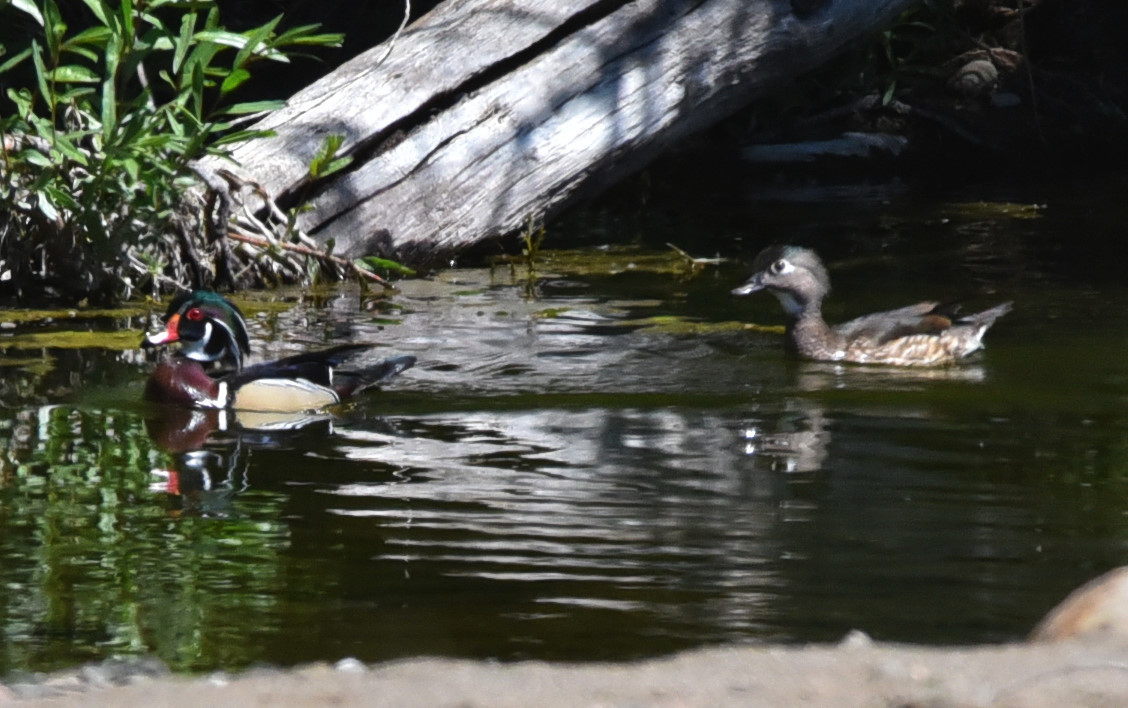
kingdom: Animalia
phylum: Chordata
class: Aves
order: Anseriformes
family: Anatidae
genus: Aix
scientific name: Aix sponsa
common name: Wood duck
